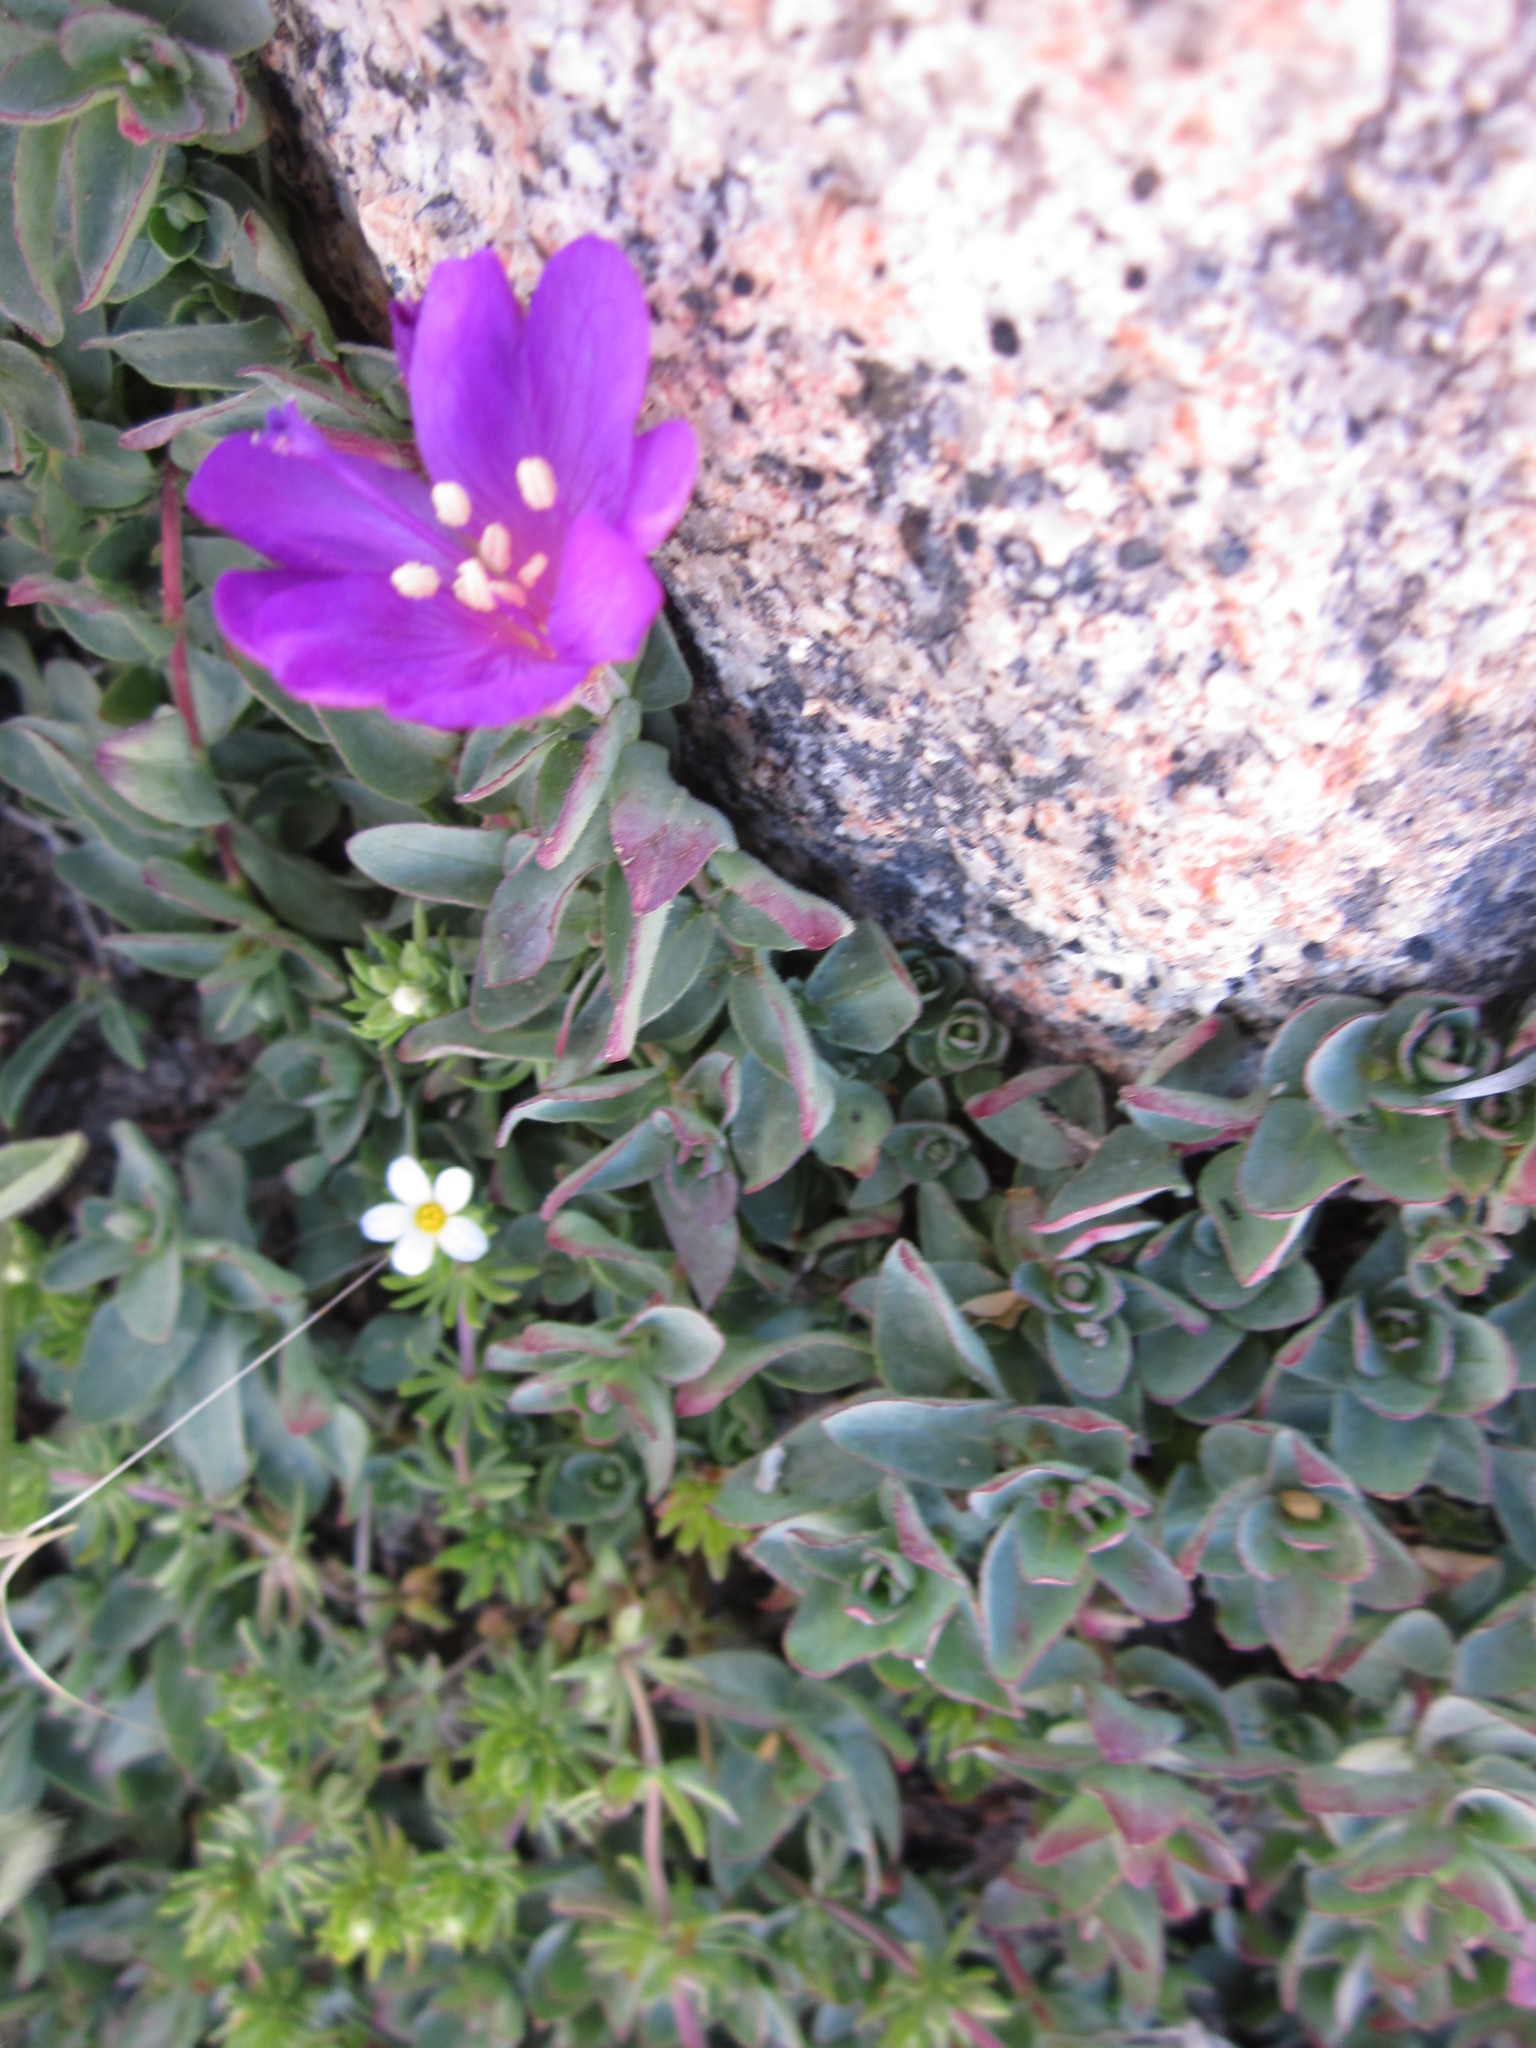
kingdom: Plantae
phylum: Tracheophyta
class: Magnoliopsida
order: Myrtales
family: Onagraceae
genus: Epilobium
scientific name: Epilobium obcordatum
